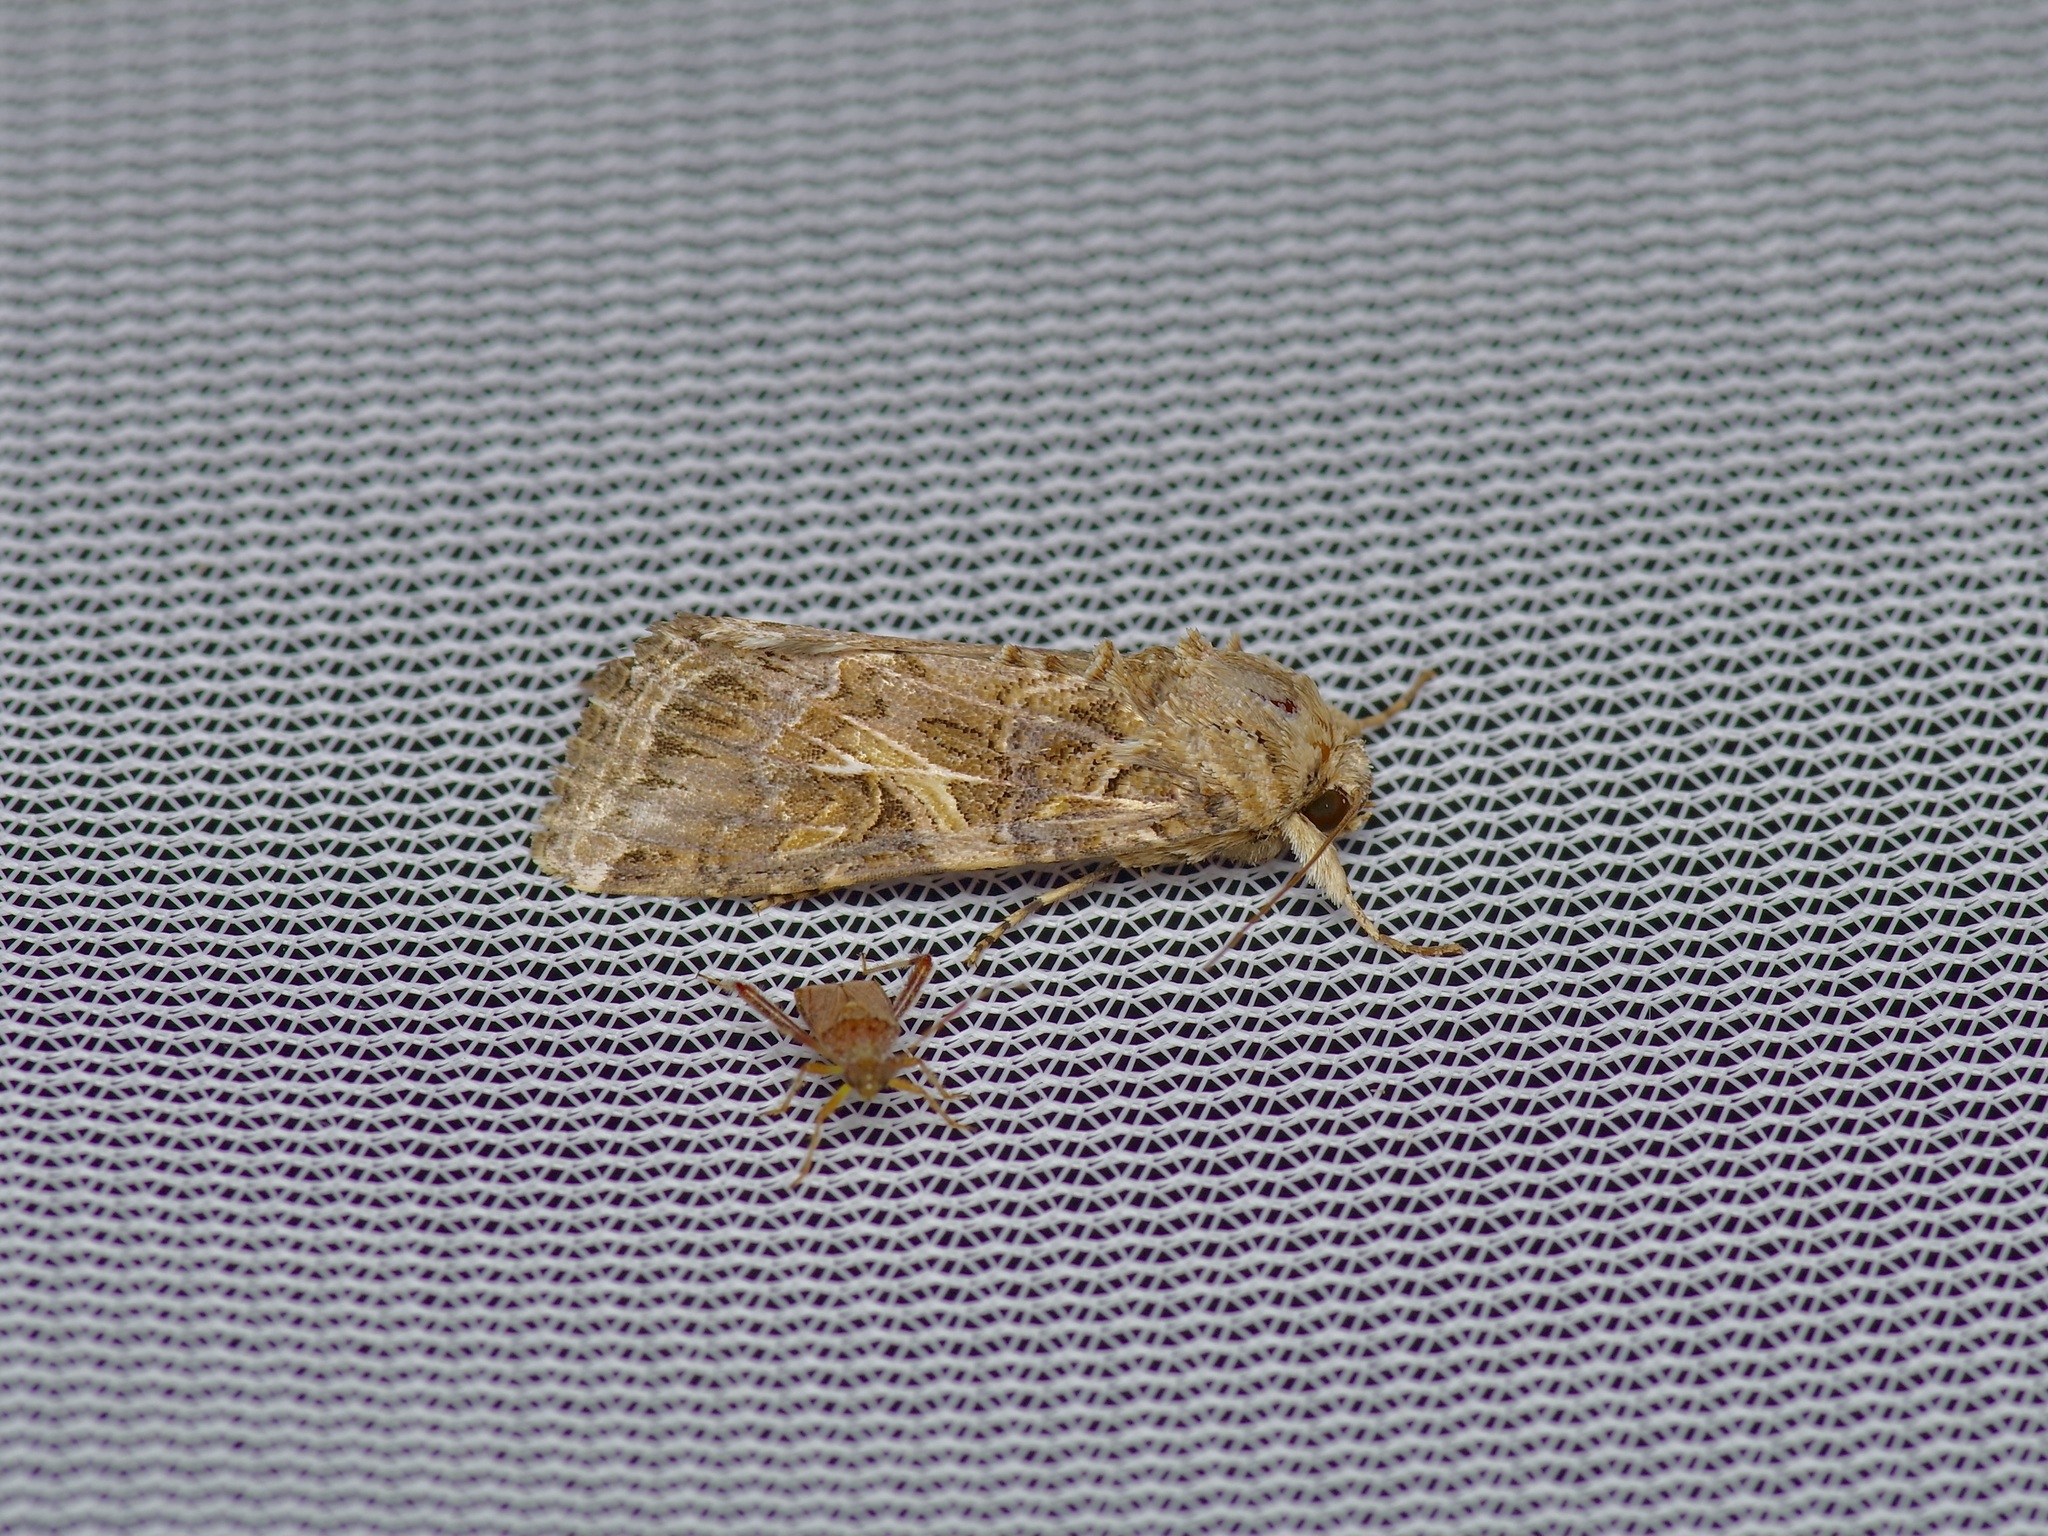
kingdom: Animalia
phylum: Arthropoda
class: Insecta
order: Lepidoptera
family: Noctuidae
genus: Spodoptera
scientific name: Spodoptera ornithogalli
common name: Yellow-striped armyworm
